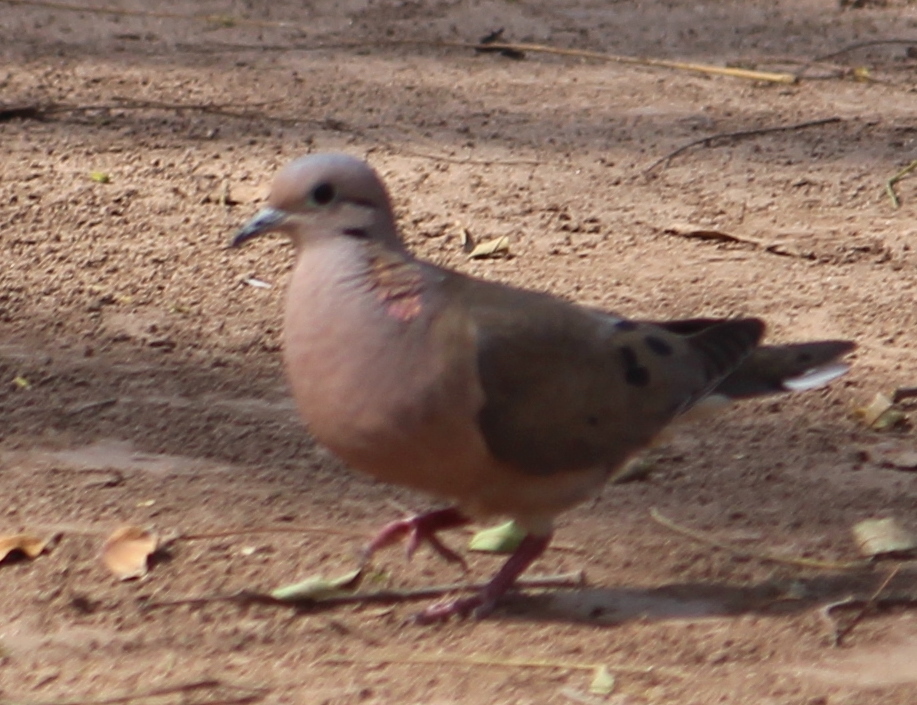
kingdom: Animalia
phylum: Chordata
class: Aves
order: Columbiformes
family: Columbidae
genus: Zenaida
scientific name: Zenaida auriculata
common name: Eared dove
